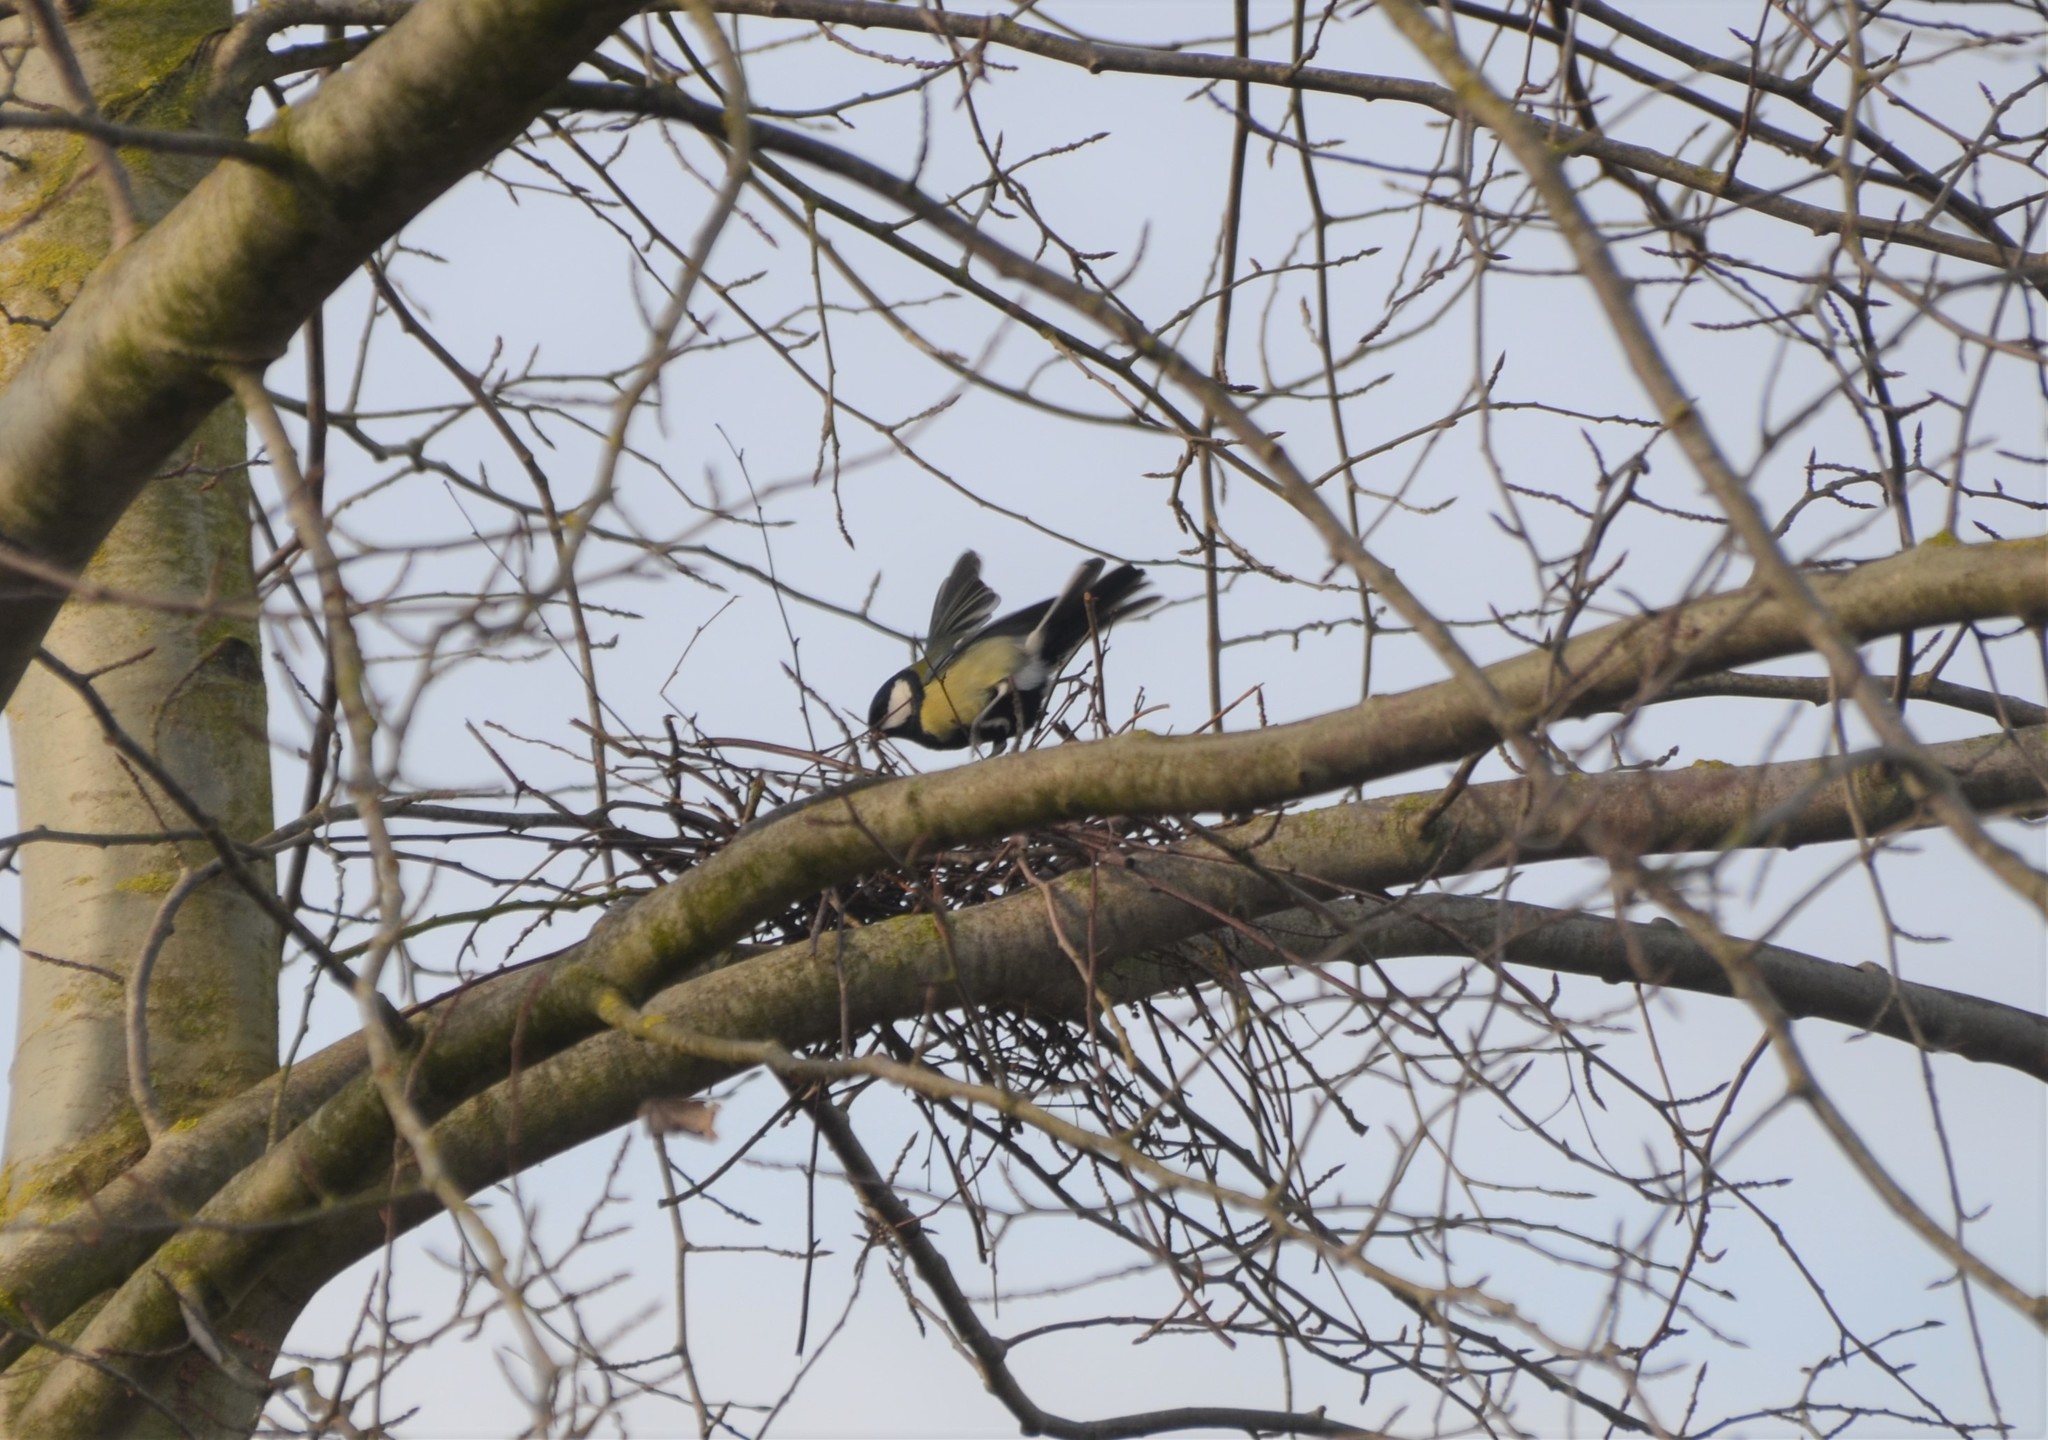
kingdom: Animalia
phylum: Chordata
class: Aves
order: Passeriformes
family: Paridae
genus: Parus
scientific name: Parus major
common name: Great tit
